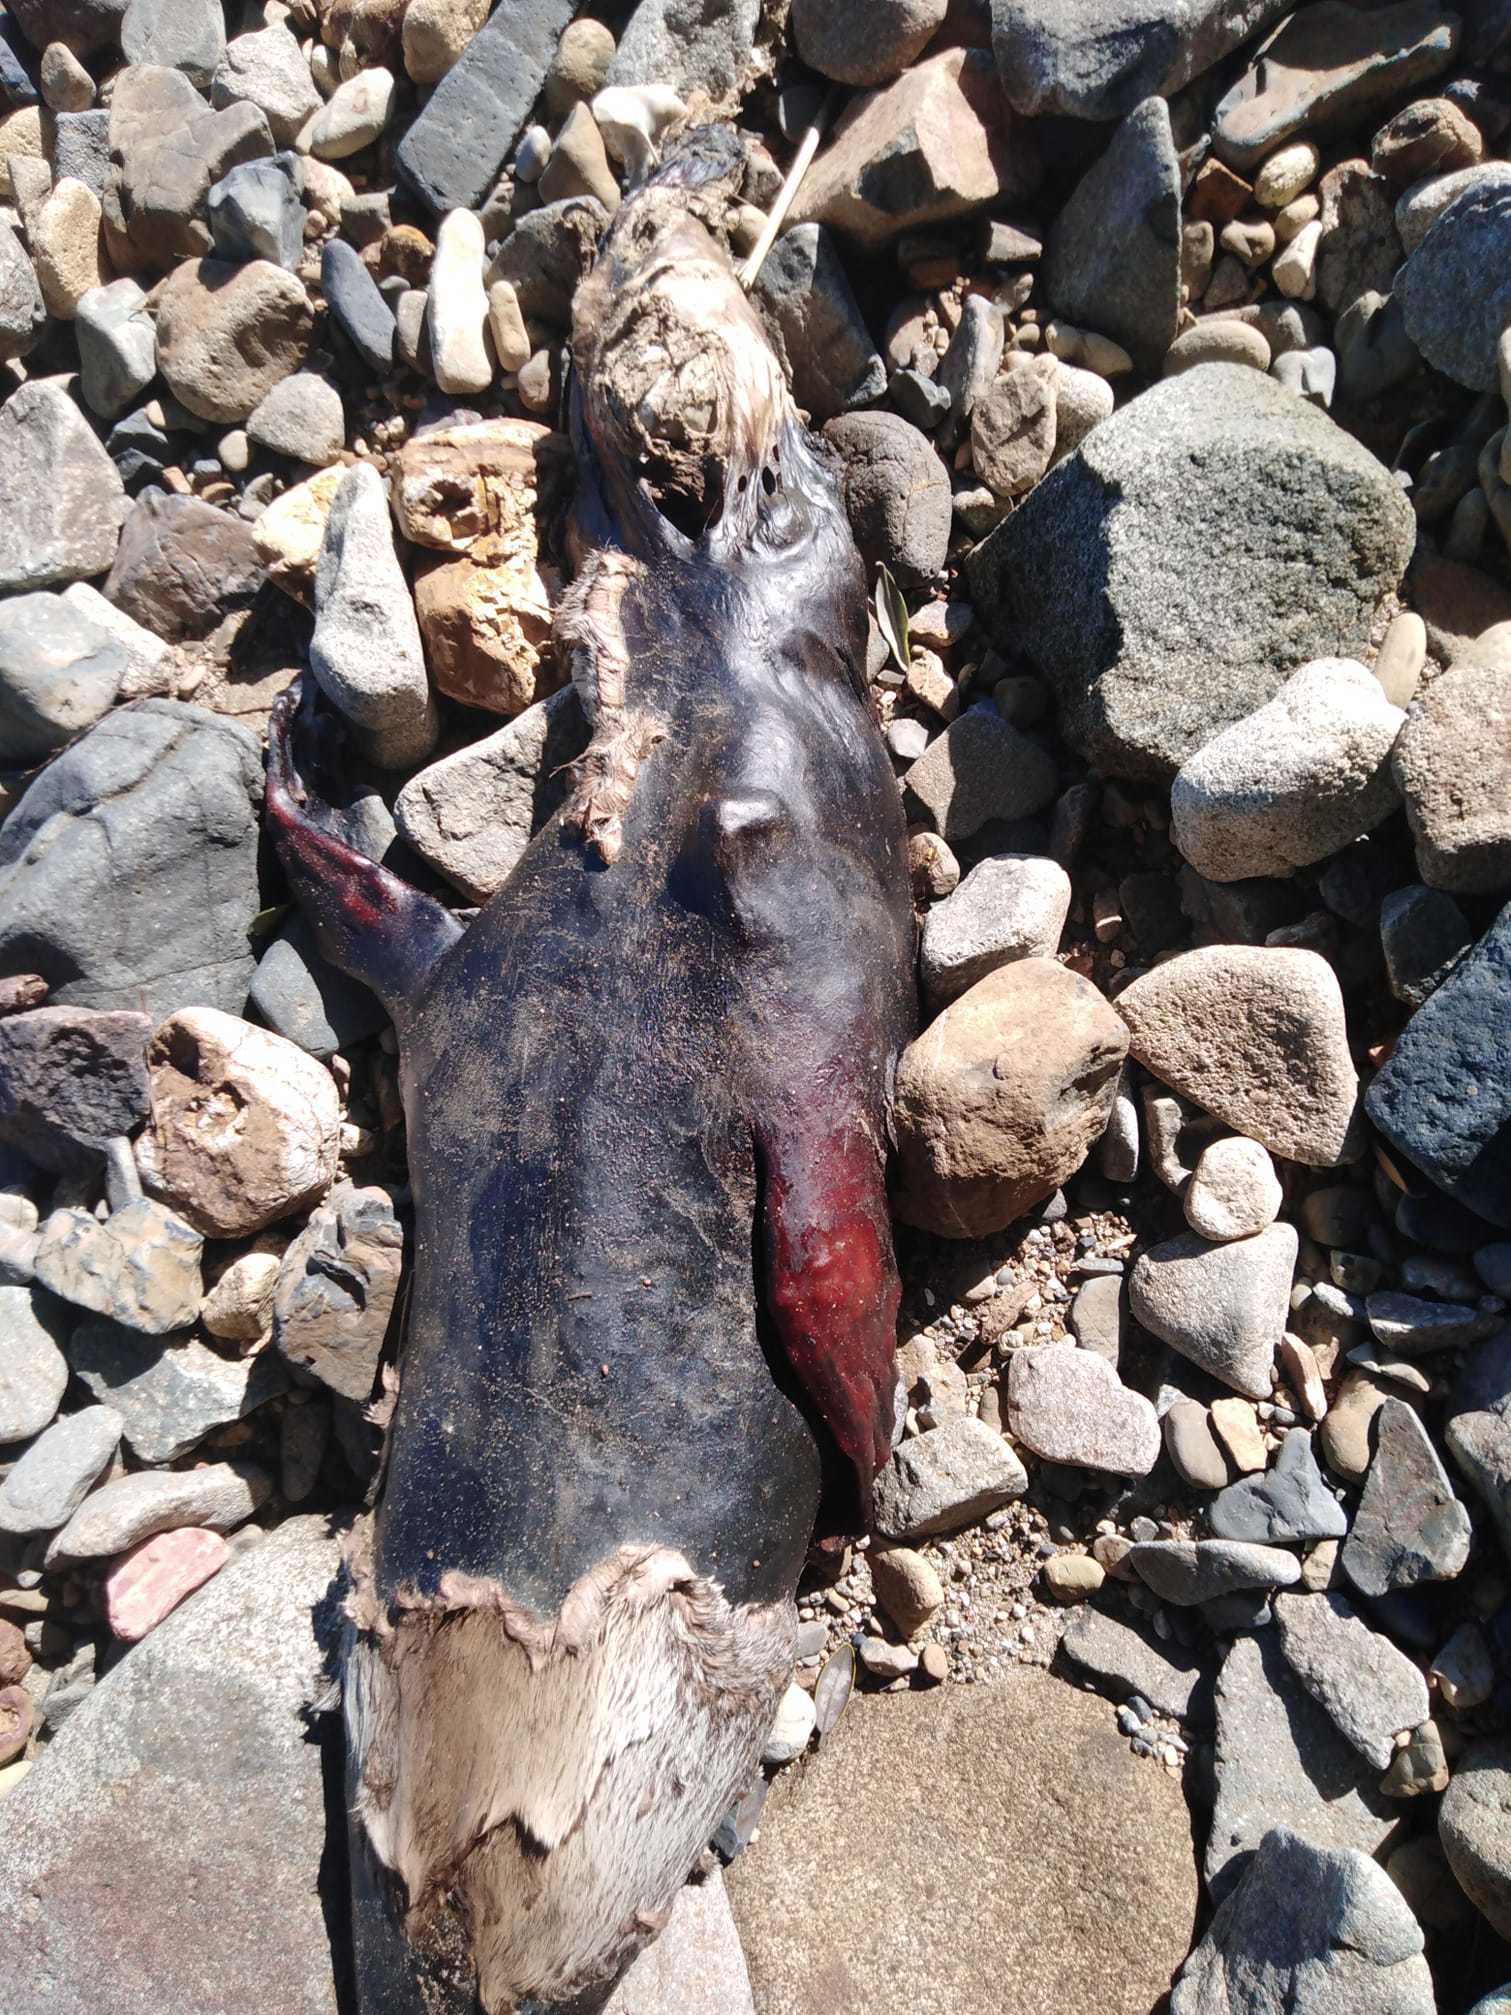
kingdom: Animalia
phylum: Chordata
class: Mammalia
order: Carnivora
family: Otariidae
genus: Arctocephalus
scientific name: Arctocephalus forsteri
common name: New zealand fur seal
